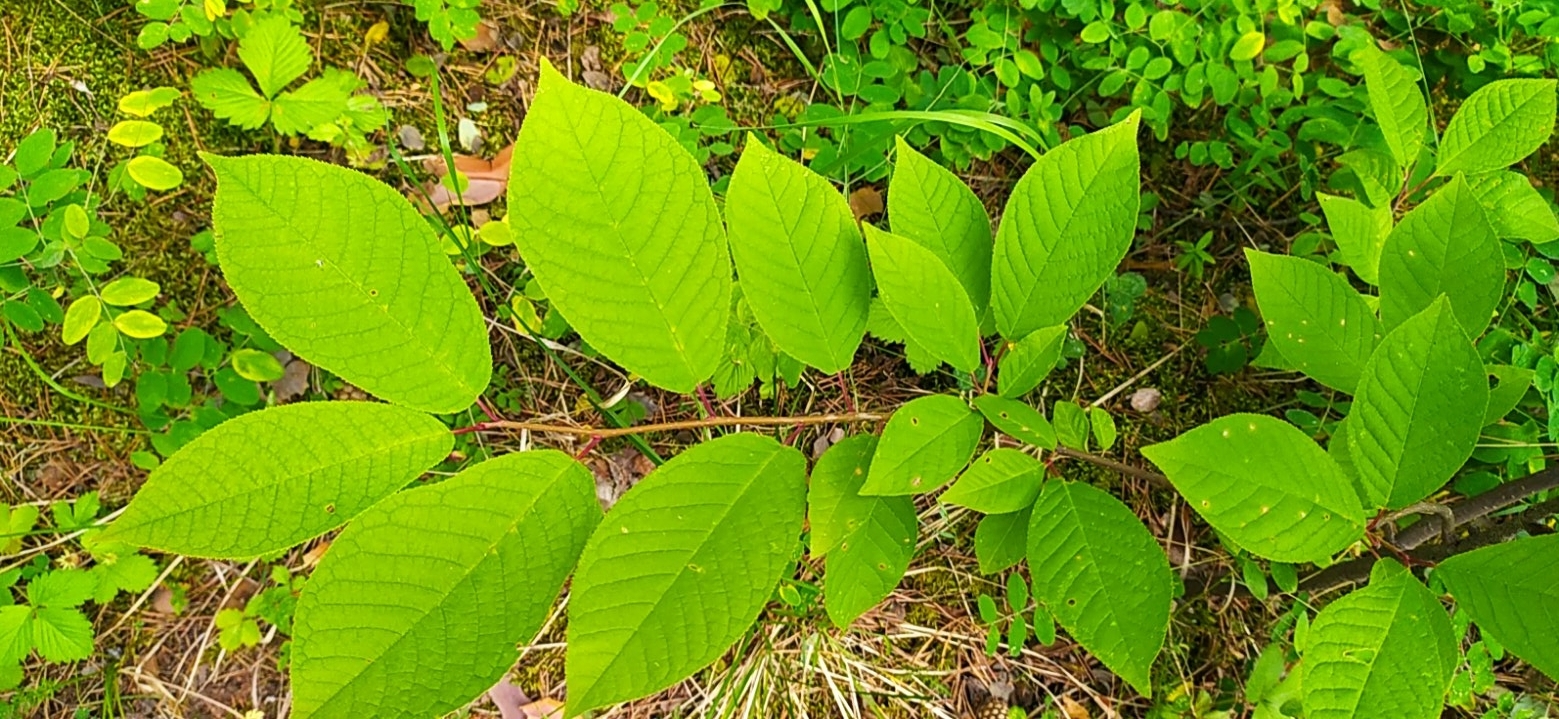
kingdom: Plantae
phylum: Tracheophyta
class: Magnoliopsida
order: Rosales
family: Rosaceae
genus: Prunus
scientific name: Prunus padus
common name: Bird cherry
